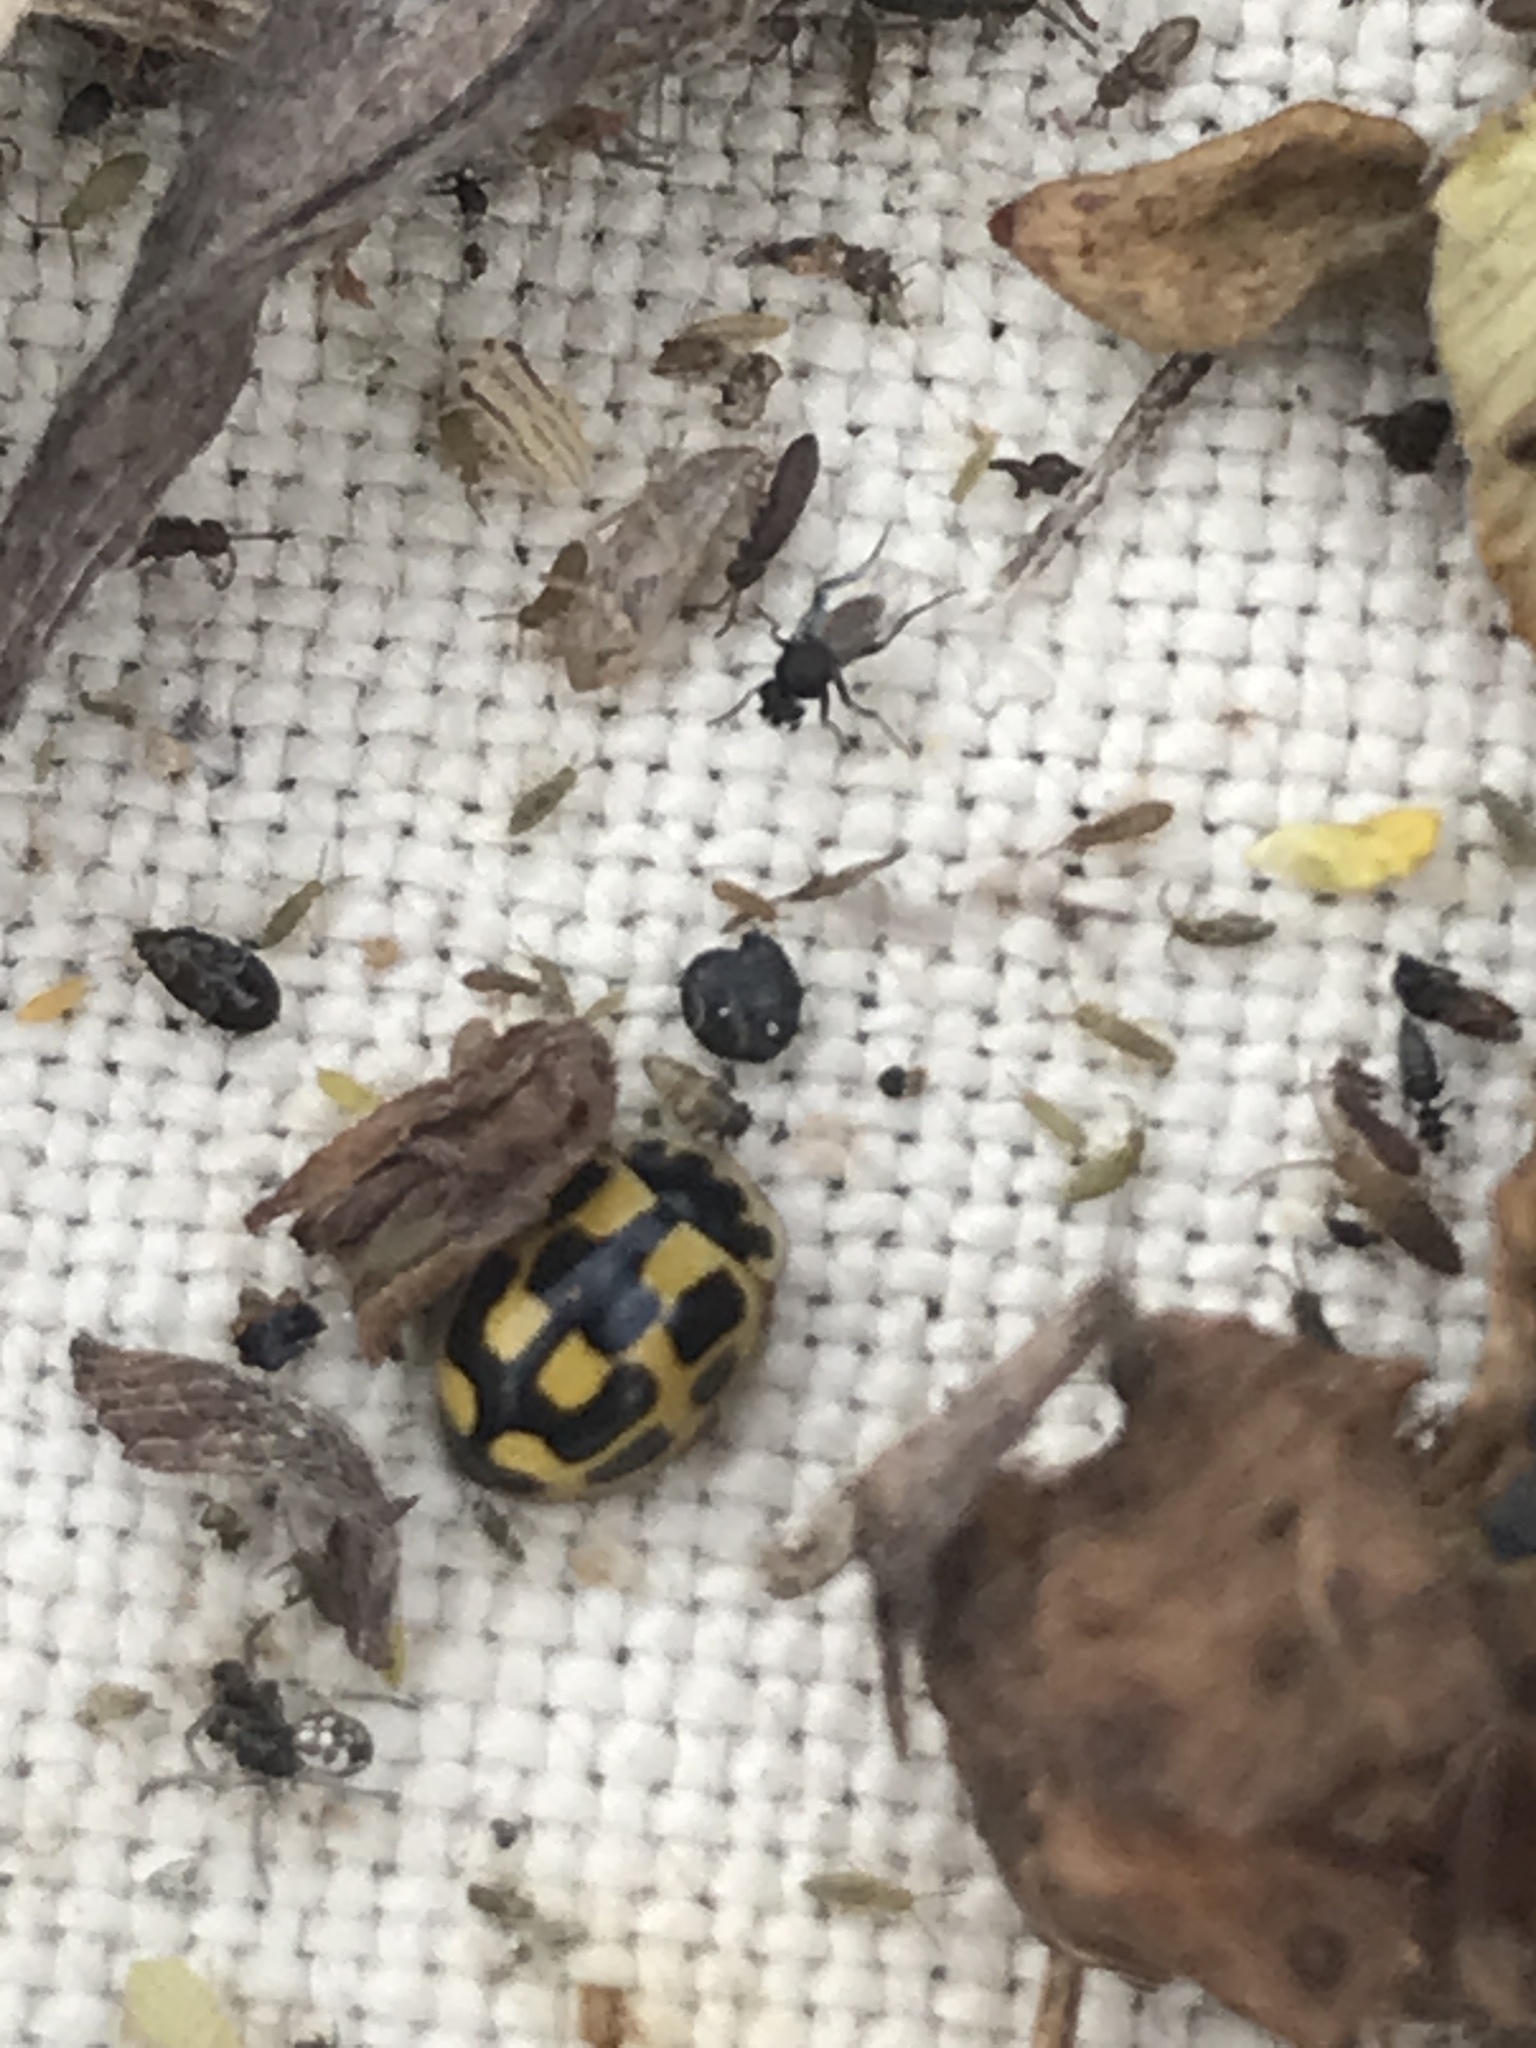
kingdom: Animalia
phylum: Arthropoda
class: Insecta
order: Coleoptera
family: Coccinellidae
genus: Propylaea
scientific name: Propylaea quatuordecimpunctata
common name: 14-spotted ladybird beetle
